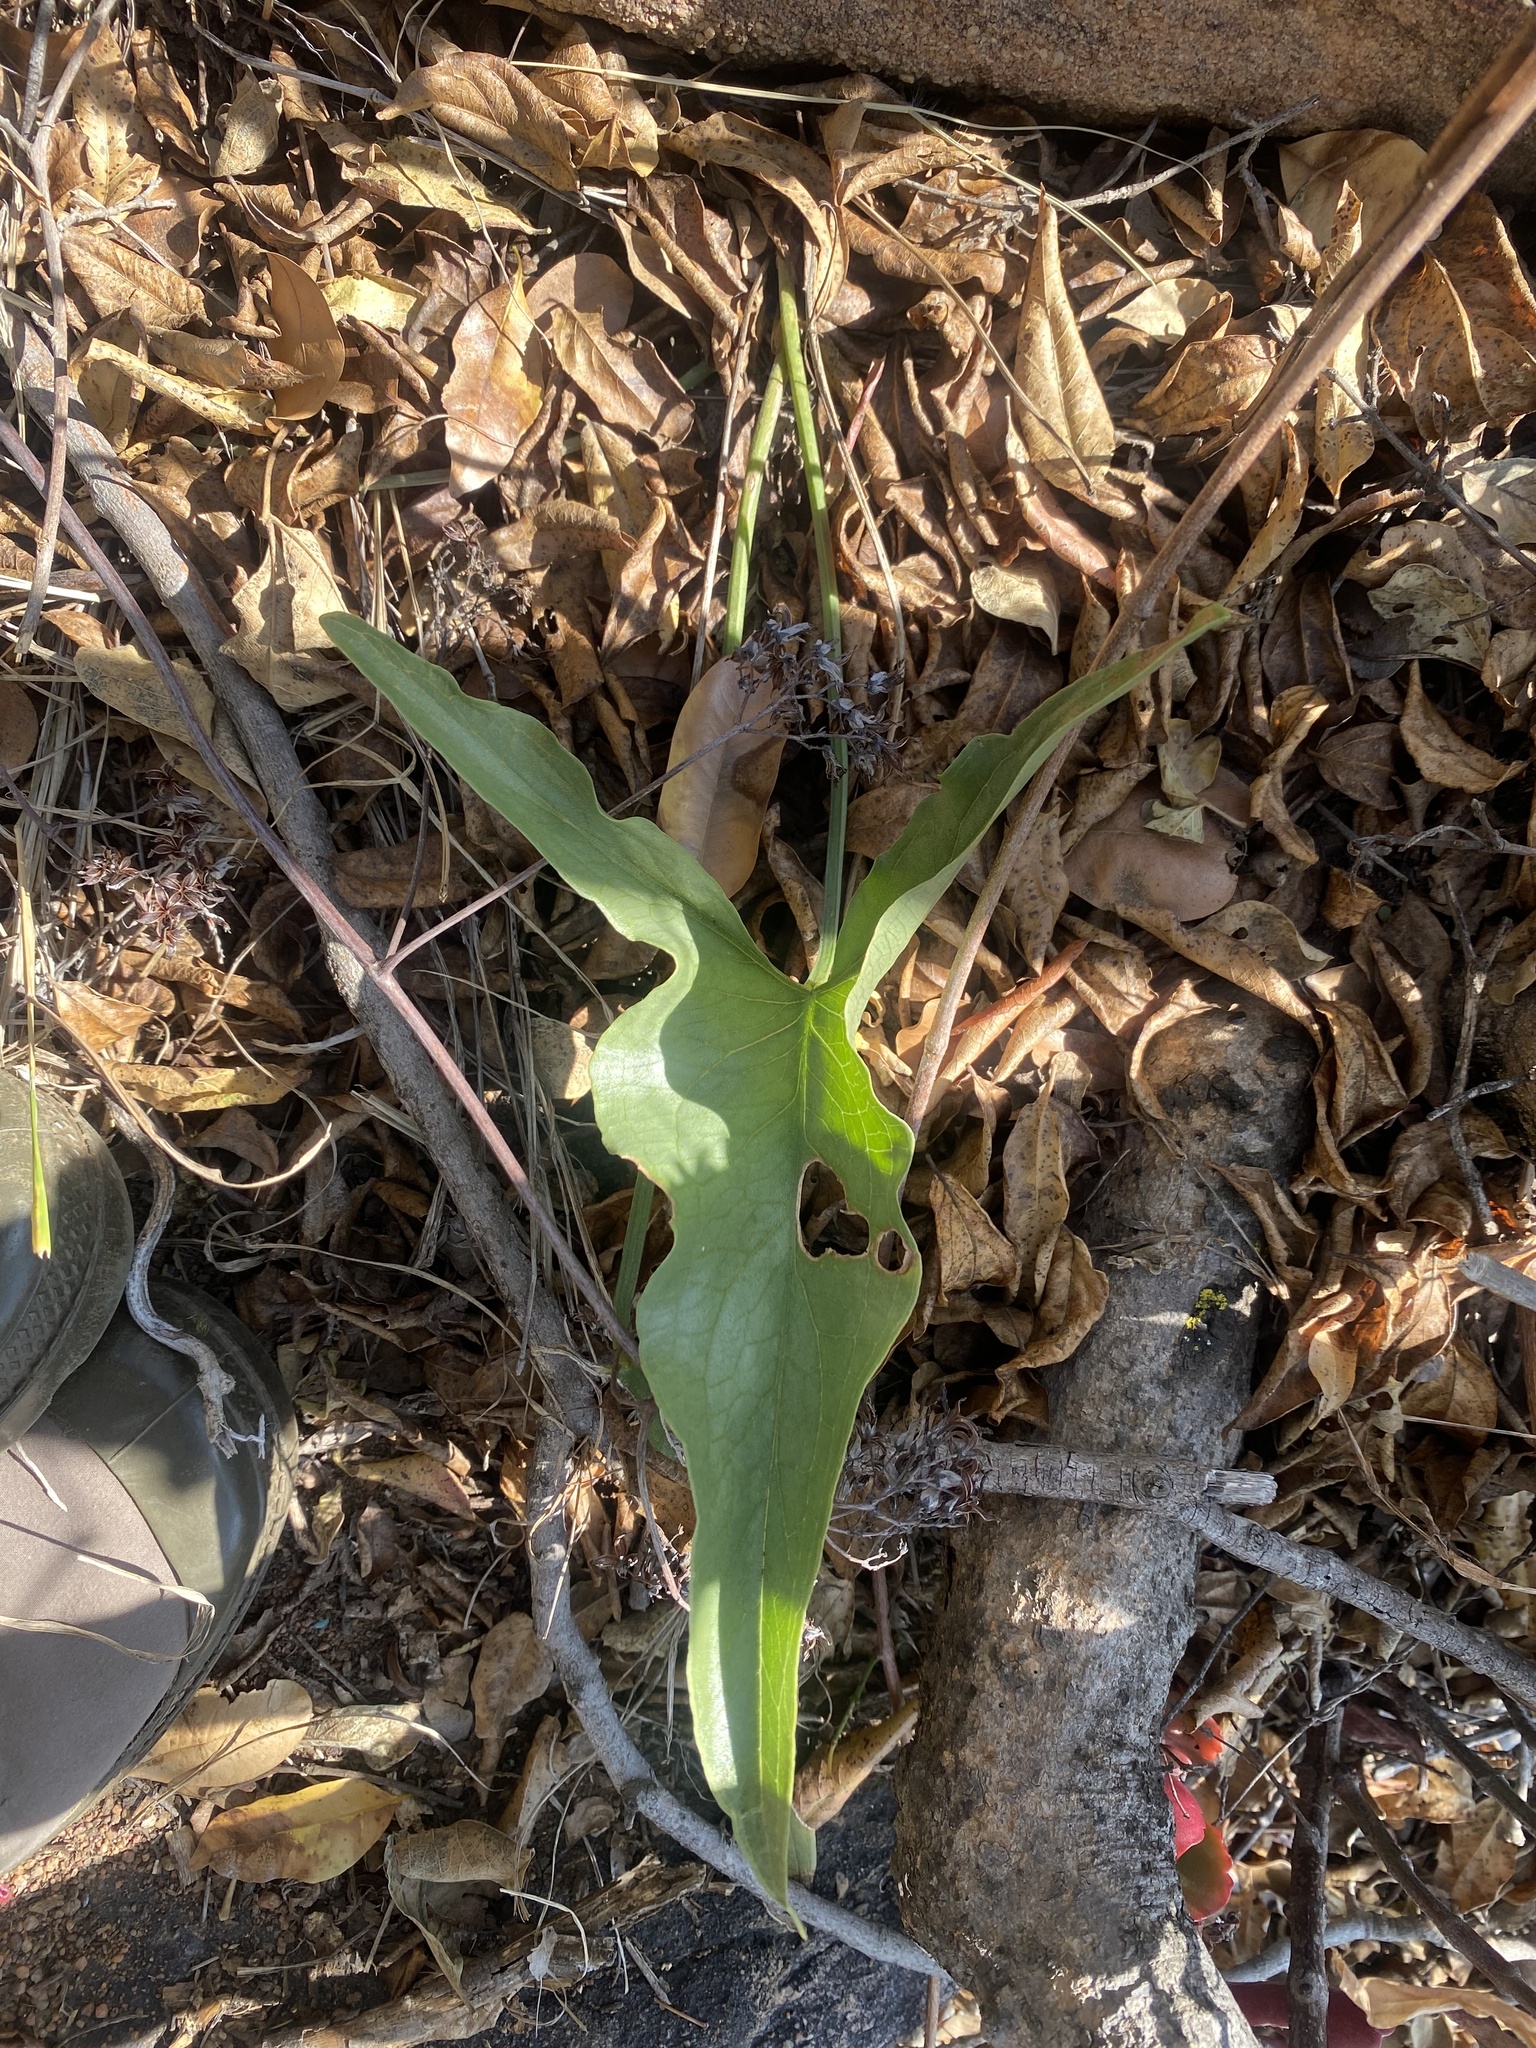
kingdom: Plantae
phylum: Tracheophyta
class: Liliopsida
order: Alismatales
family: Araceae
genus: Stylochaeton
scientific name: Stylochaeton natalensis
